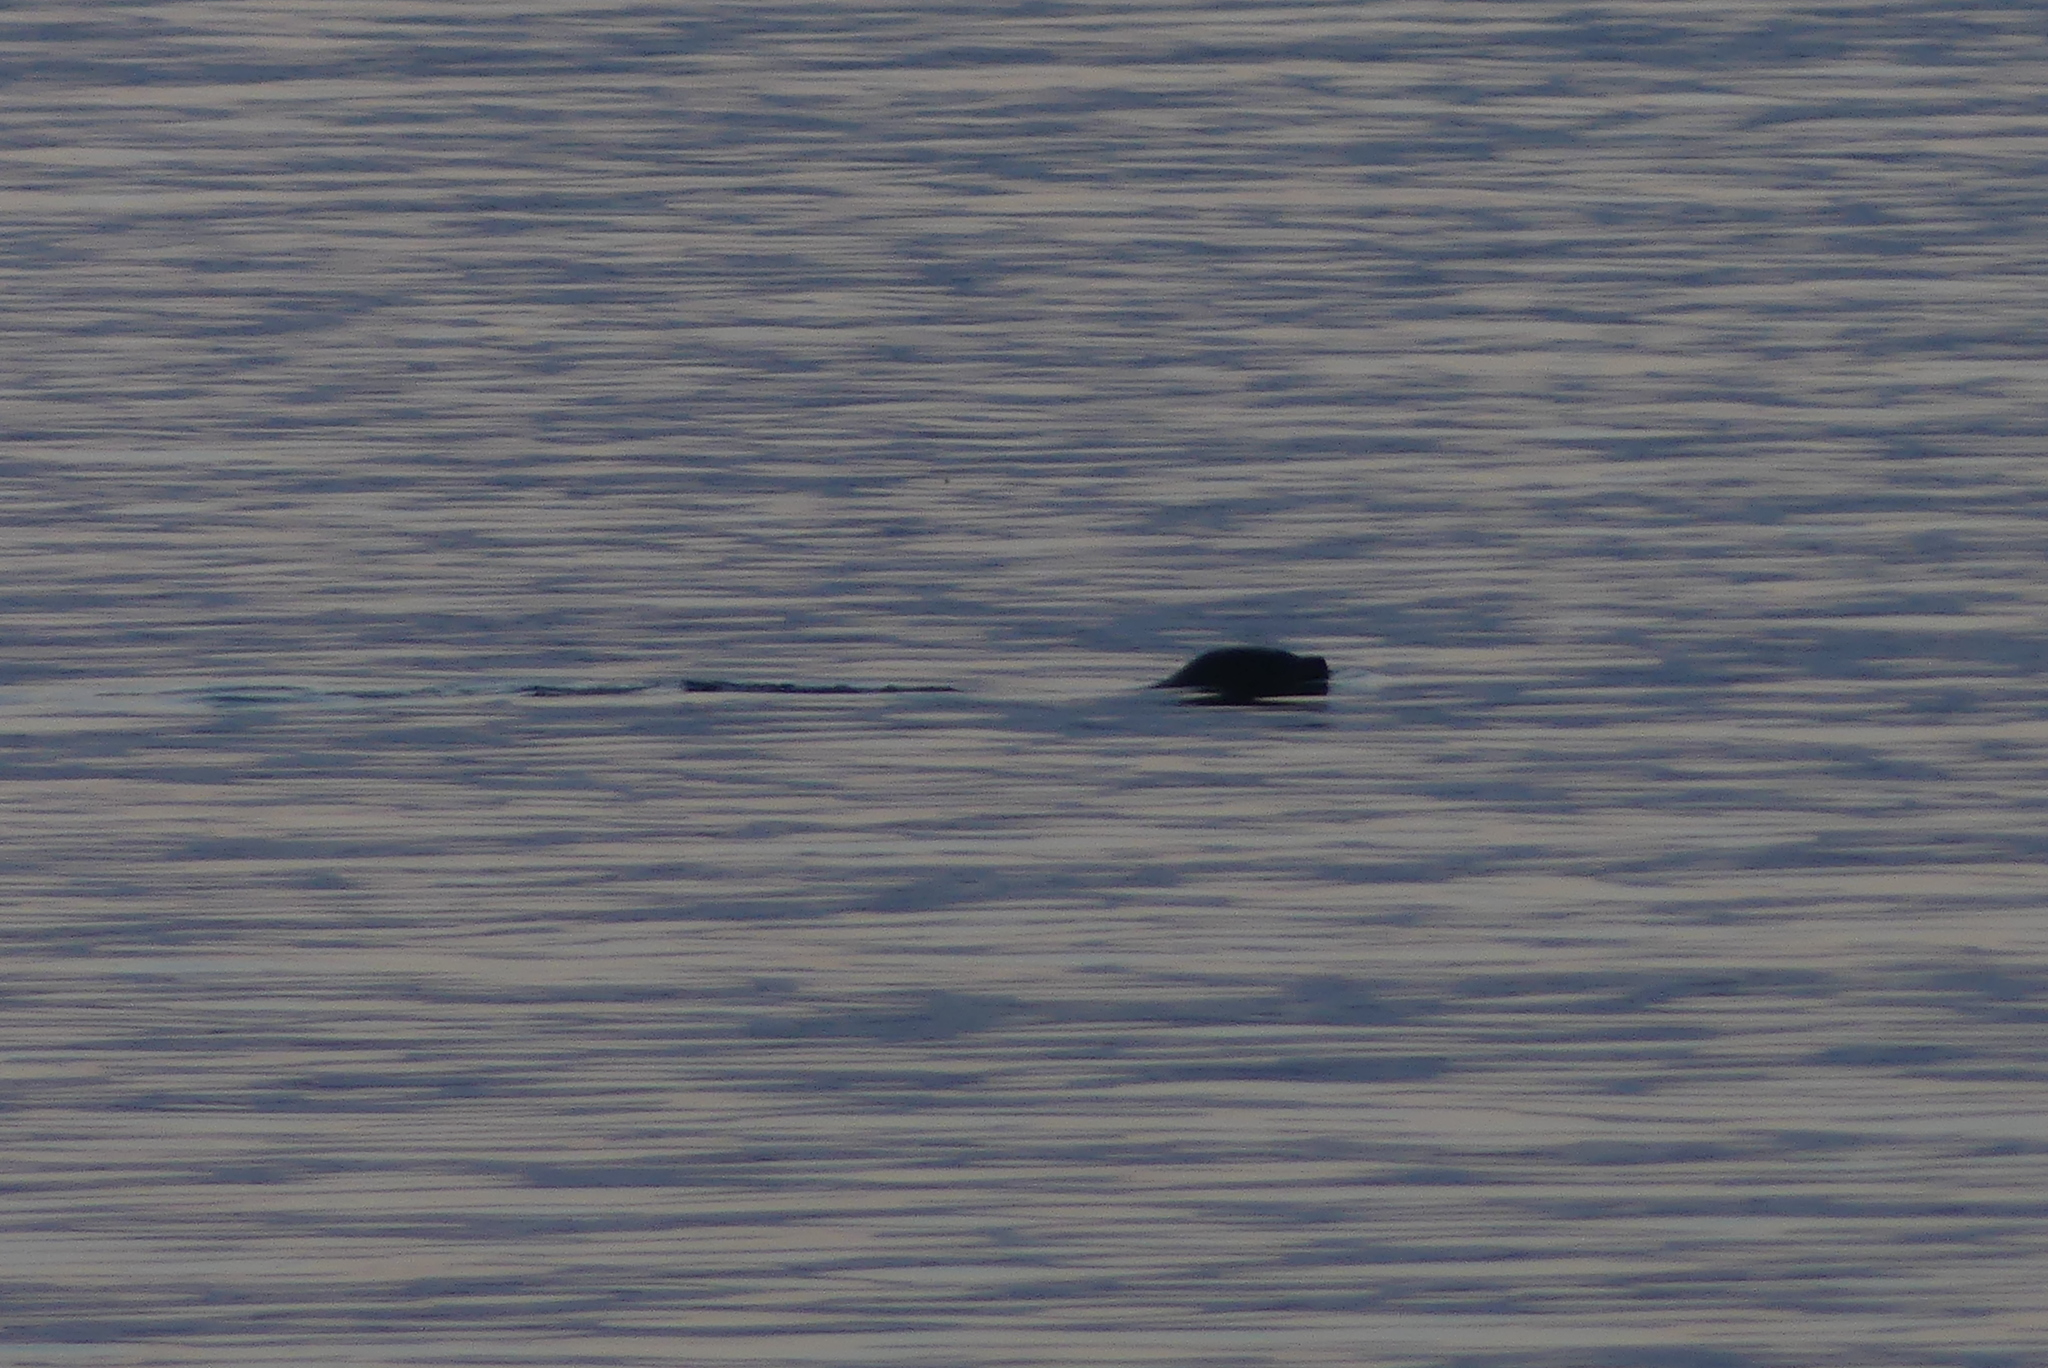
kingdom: Animalia
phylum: Chordata
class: Mammalia
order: Carnivora
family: Phocidae
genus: Phoca
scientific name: Phoca vitulina
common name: Harbor seal
